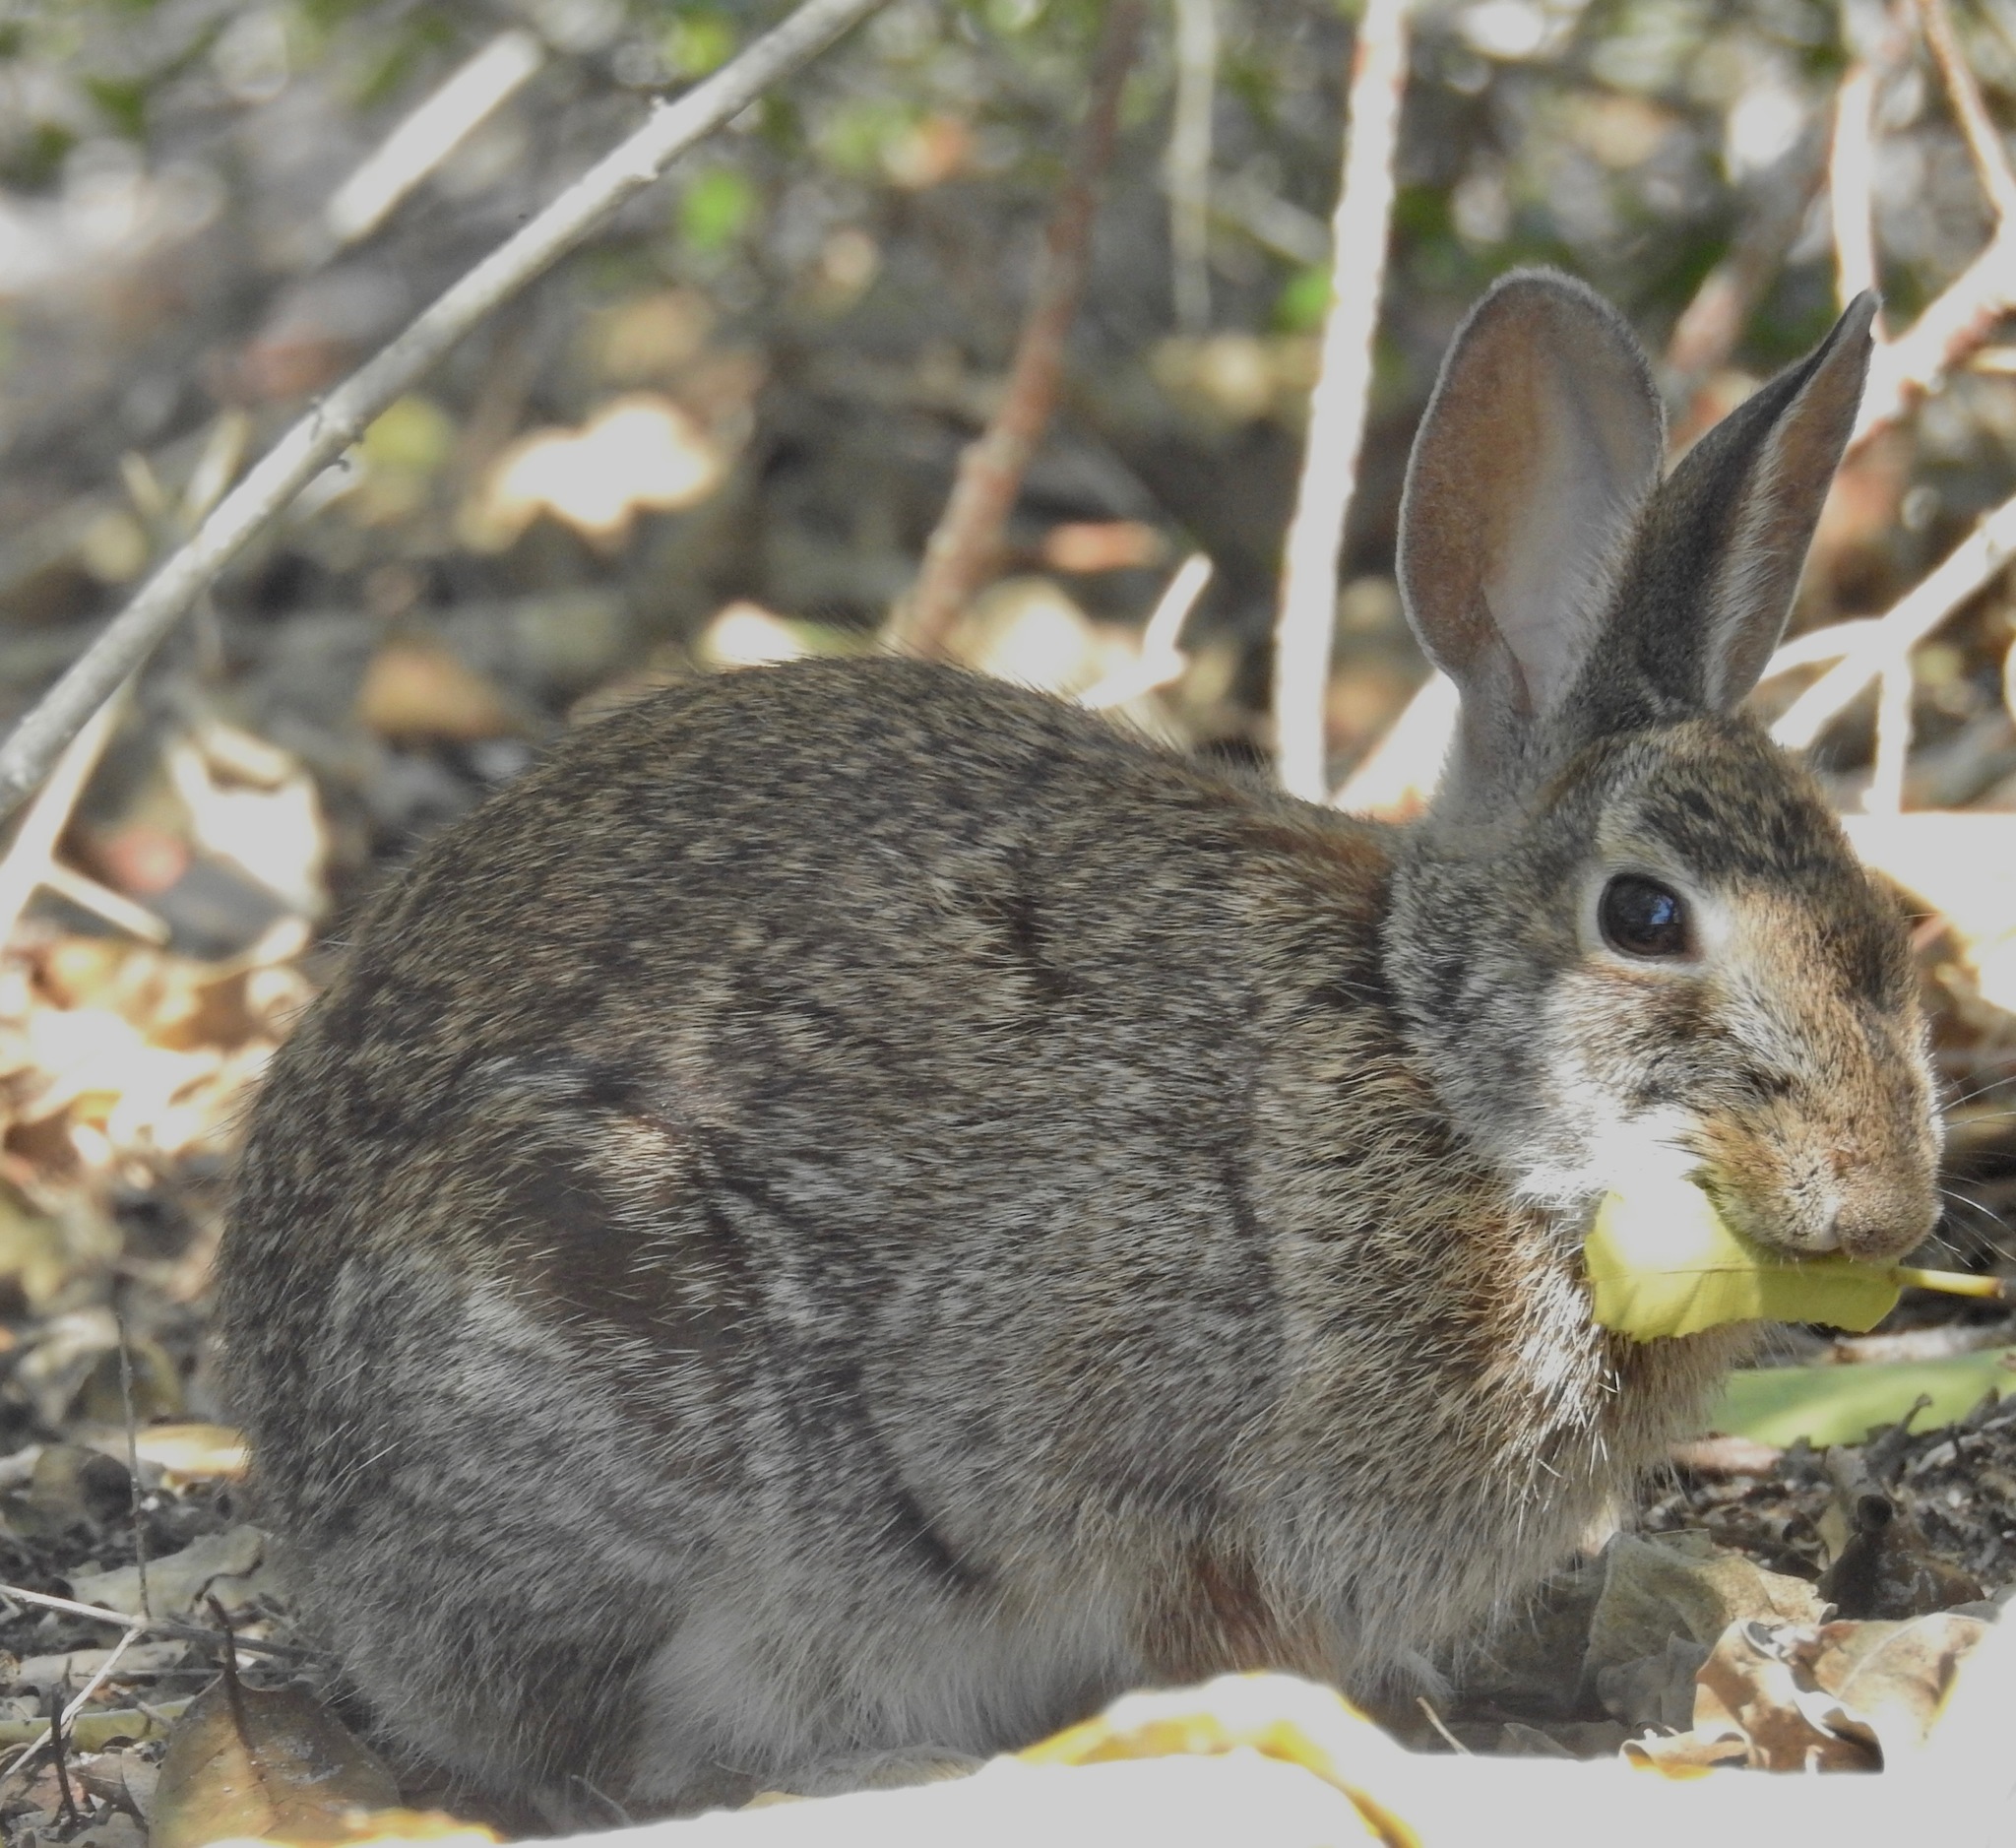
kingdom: Animalia
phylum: Chordata
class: Mammalia
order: Lagomorpha
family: Leporidae
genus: Sylvilagus
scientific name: Sylvilagus floridanus
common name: Eastern cottontail
